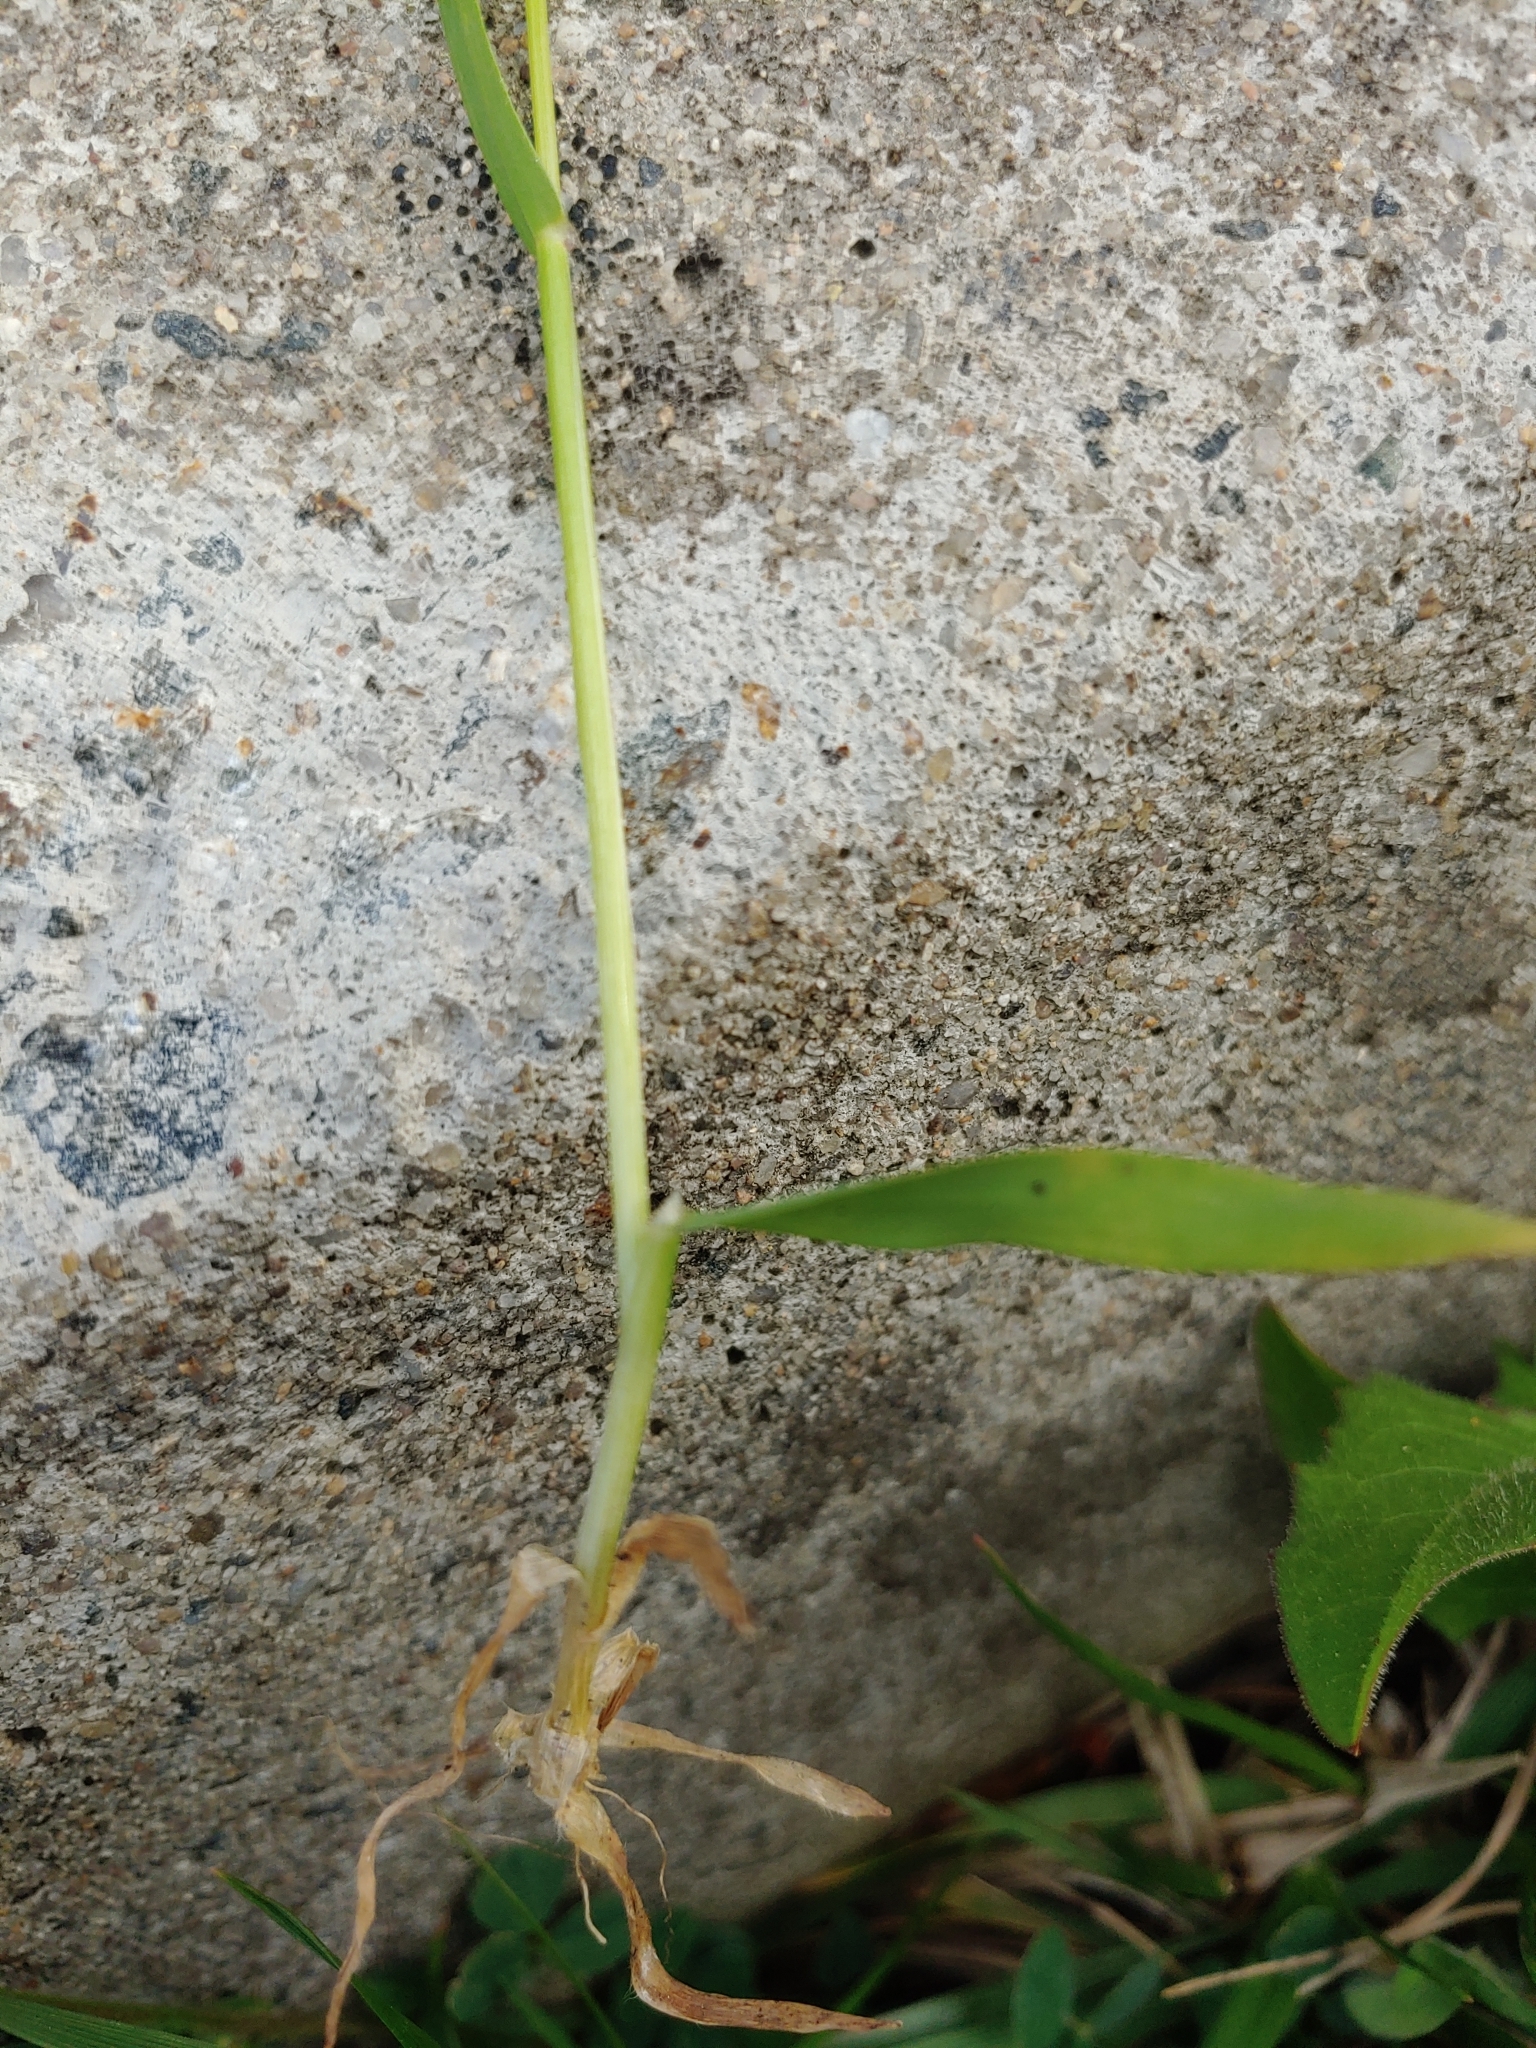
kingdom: Plantae
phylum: Tracheophyta
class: Liliopsida
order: Poales
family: Poaceae
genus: Anthoxanthum
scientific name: Anthoxanthum odoratum
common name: Sweet vernalgrass
